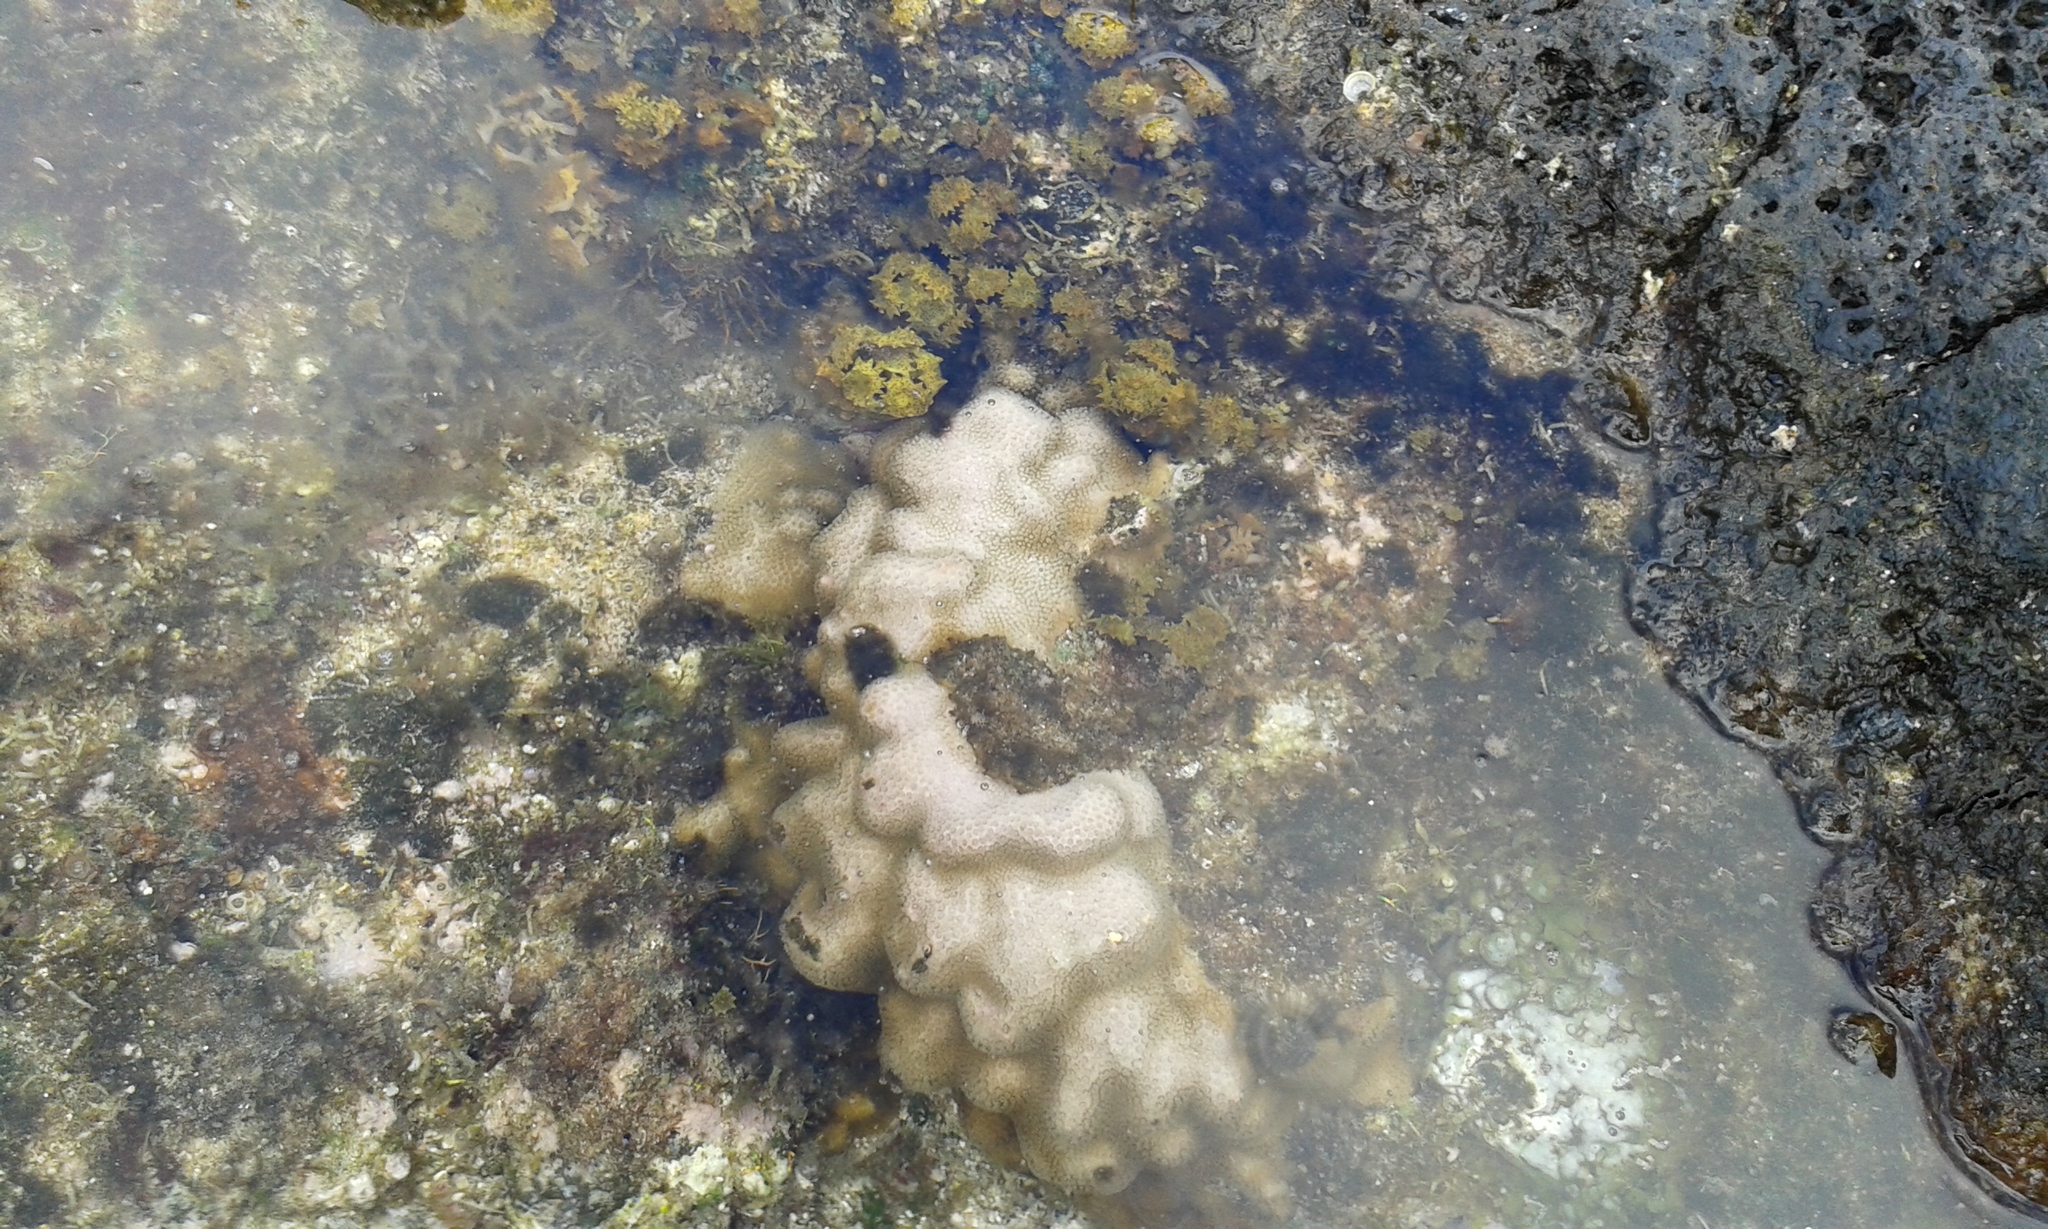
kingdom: Chromista
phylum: Ochrophyta
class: Phaeophyceae
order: Fucales
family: Sargassaceae
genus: Turbinaria
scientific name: Turbinaria ornata
